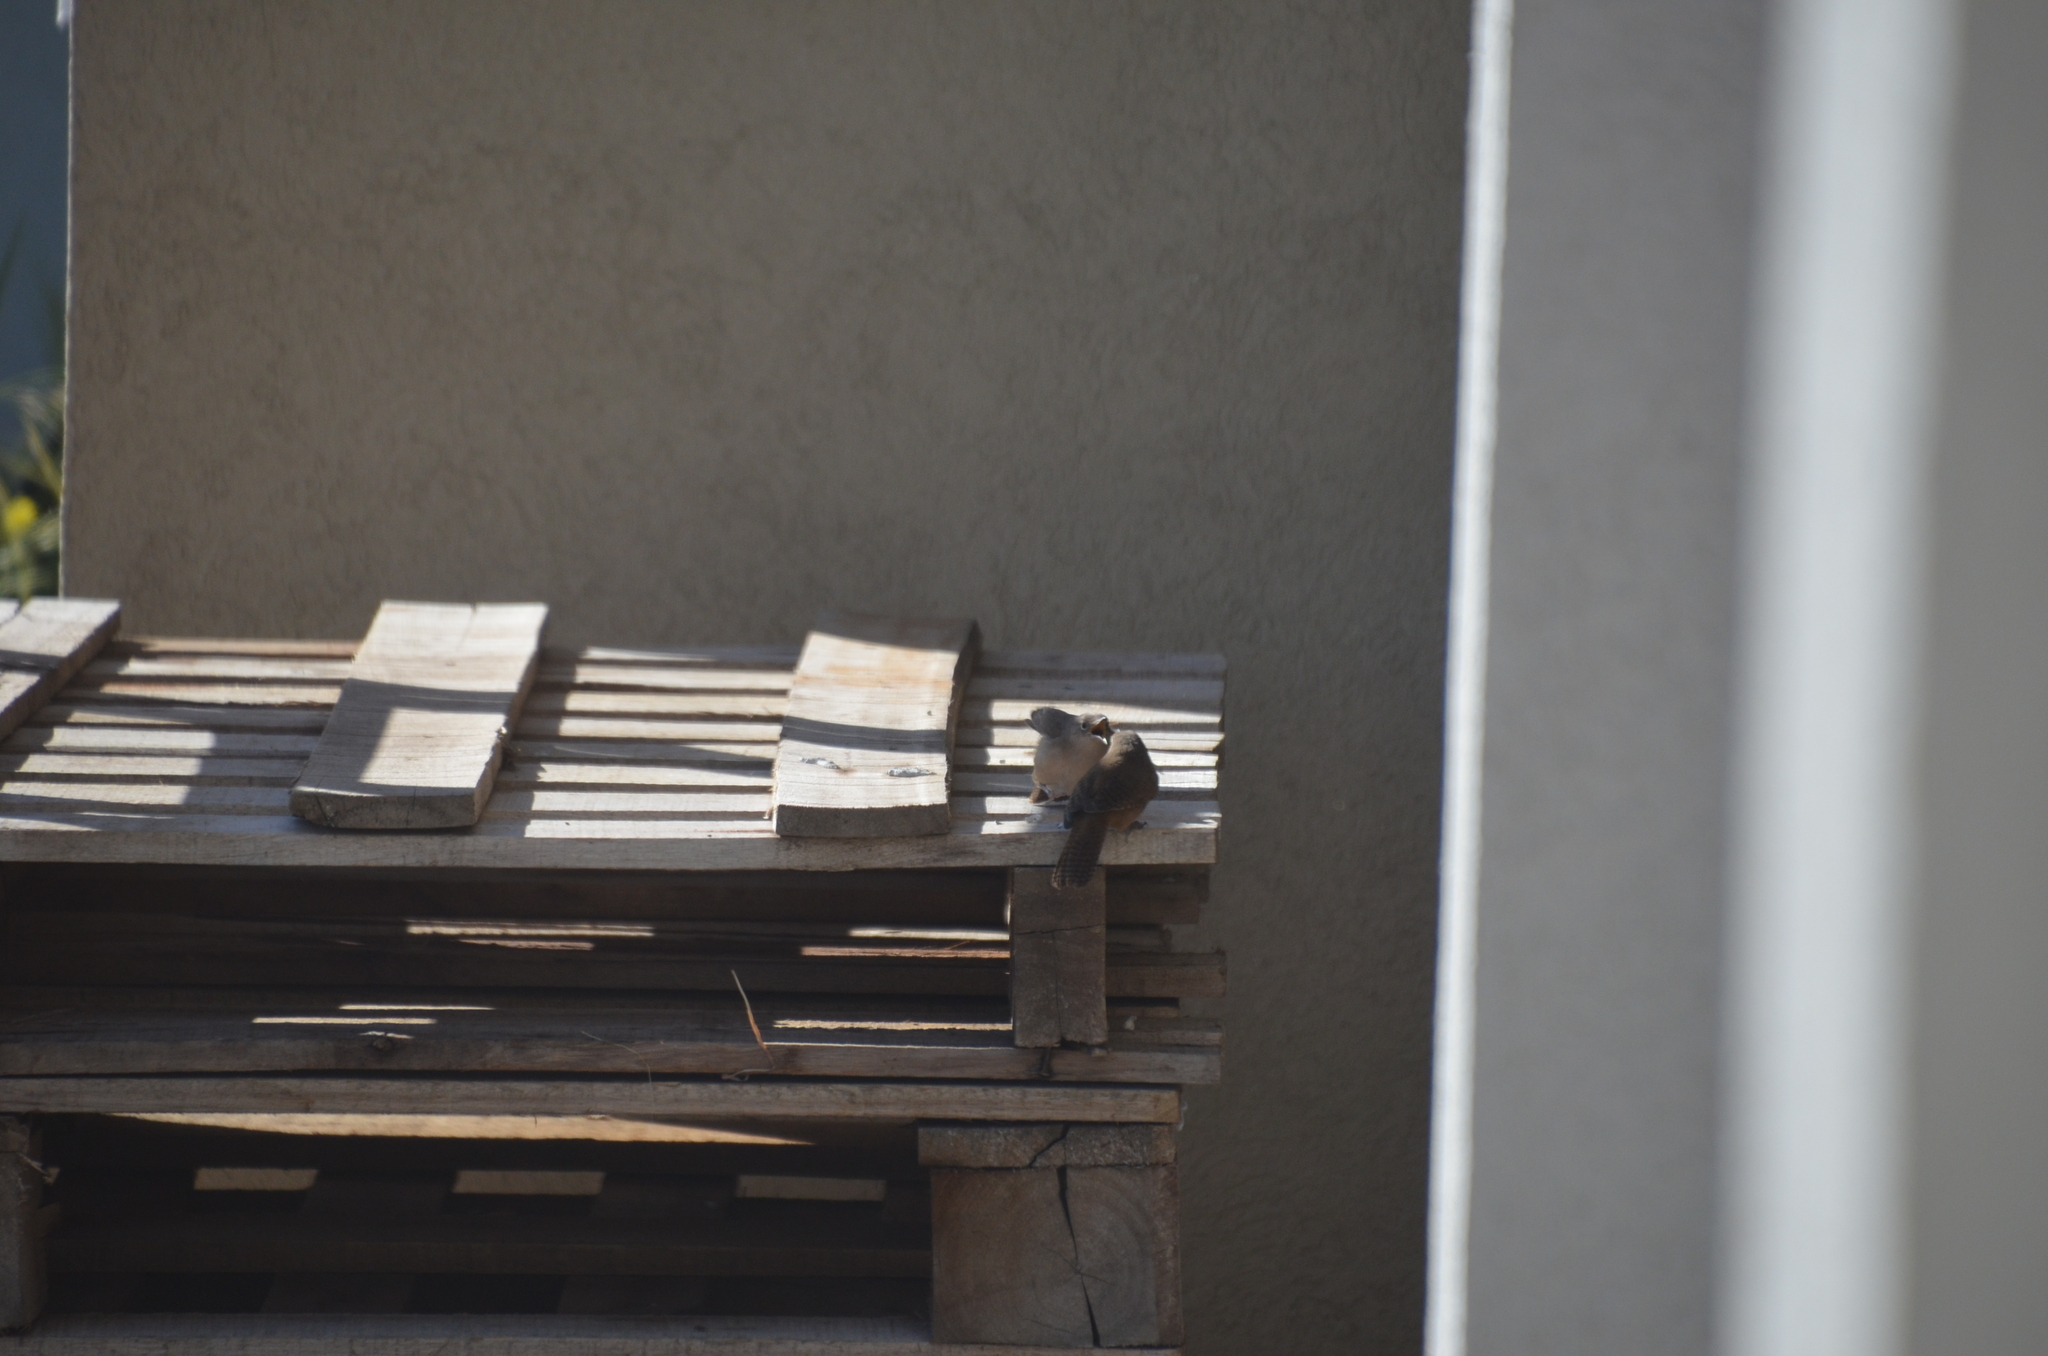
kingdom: Animalia
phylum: Chordata
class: Aves
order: Passeriformes
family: Troglodytidae
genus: Troglodytes
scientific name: Troglodytes aedon
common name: House wren
